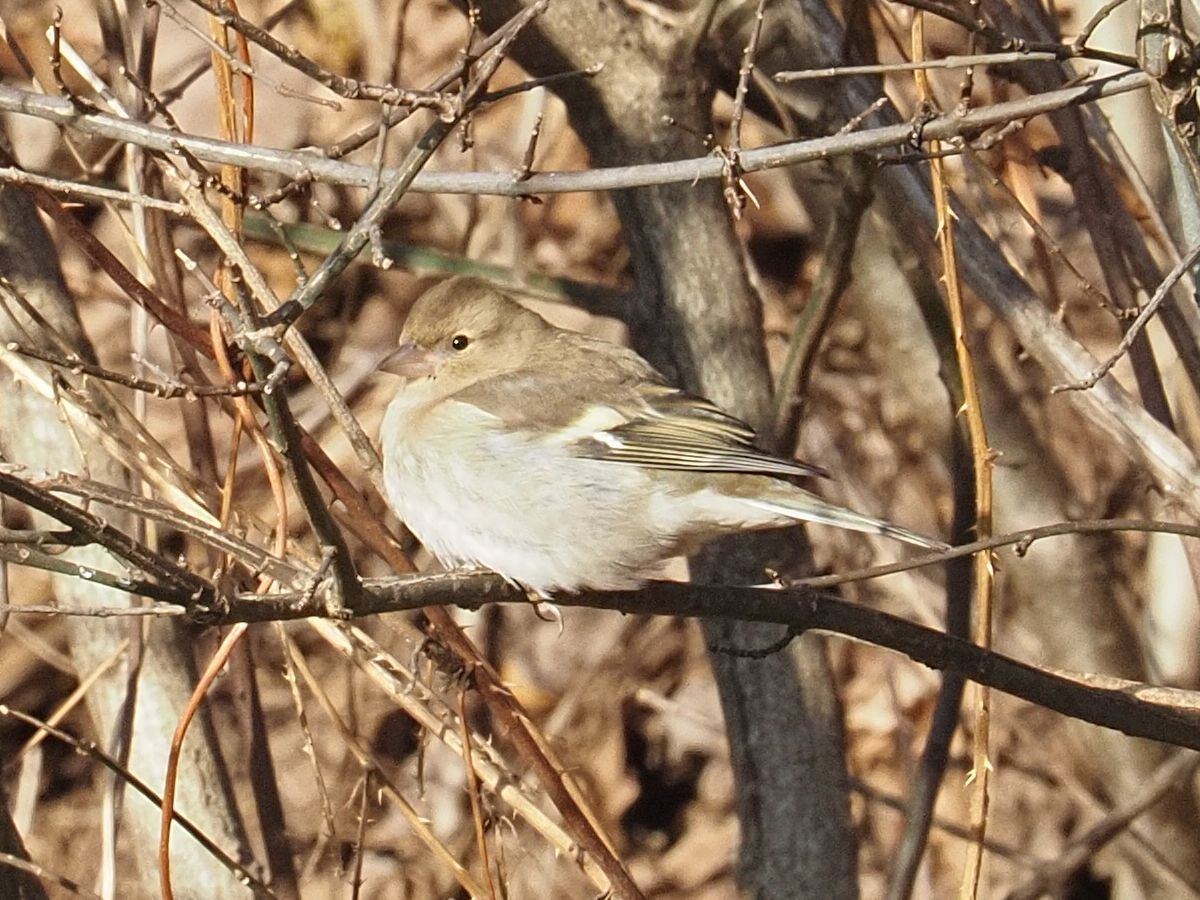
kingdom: Animalia
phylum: Chordata
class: Aves
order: Passeriformes
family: Fringillidae
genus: Fringilla
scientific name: Fringilla coelebs
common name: Common chaffinch
